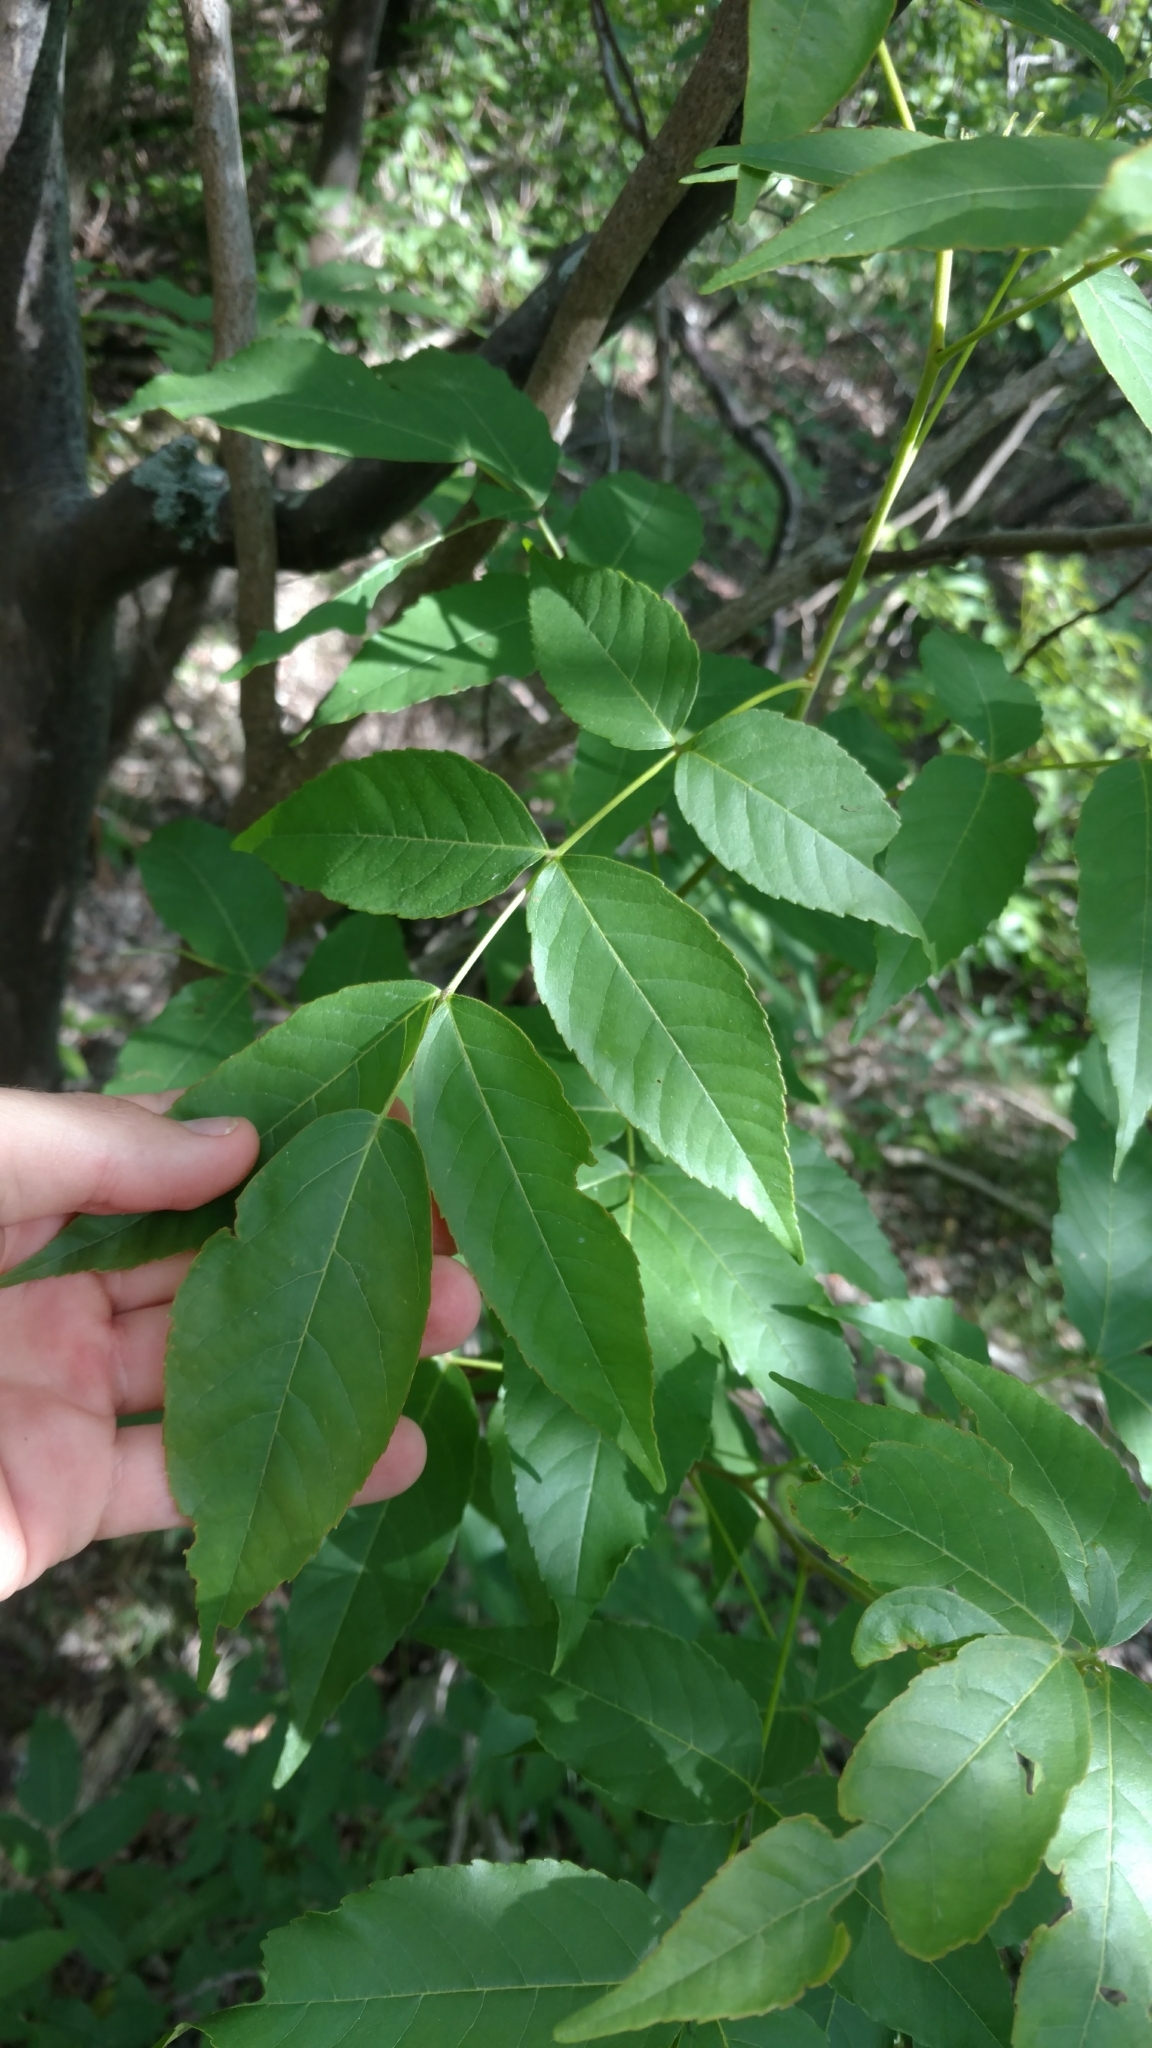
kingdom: Plantae
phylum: Tracheophyta
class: Magnoliopsida
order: Sapindales
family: Sapindaceae
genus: Ungnadia
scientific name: Ungnadia speciosa
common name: Texas-buckeye
